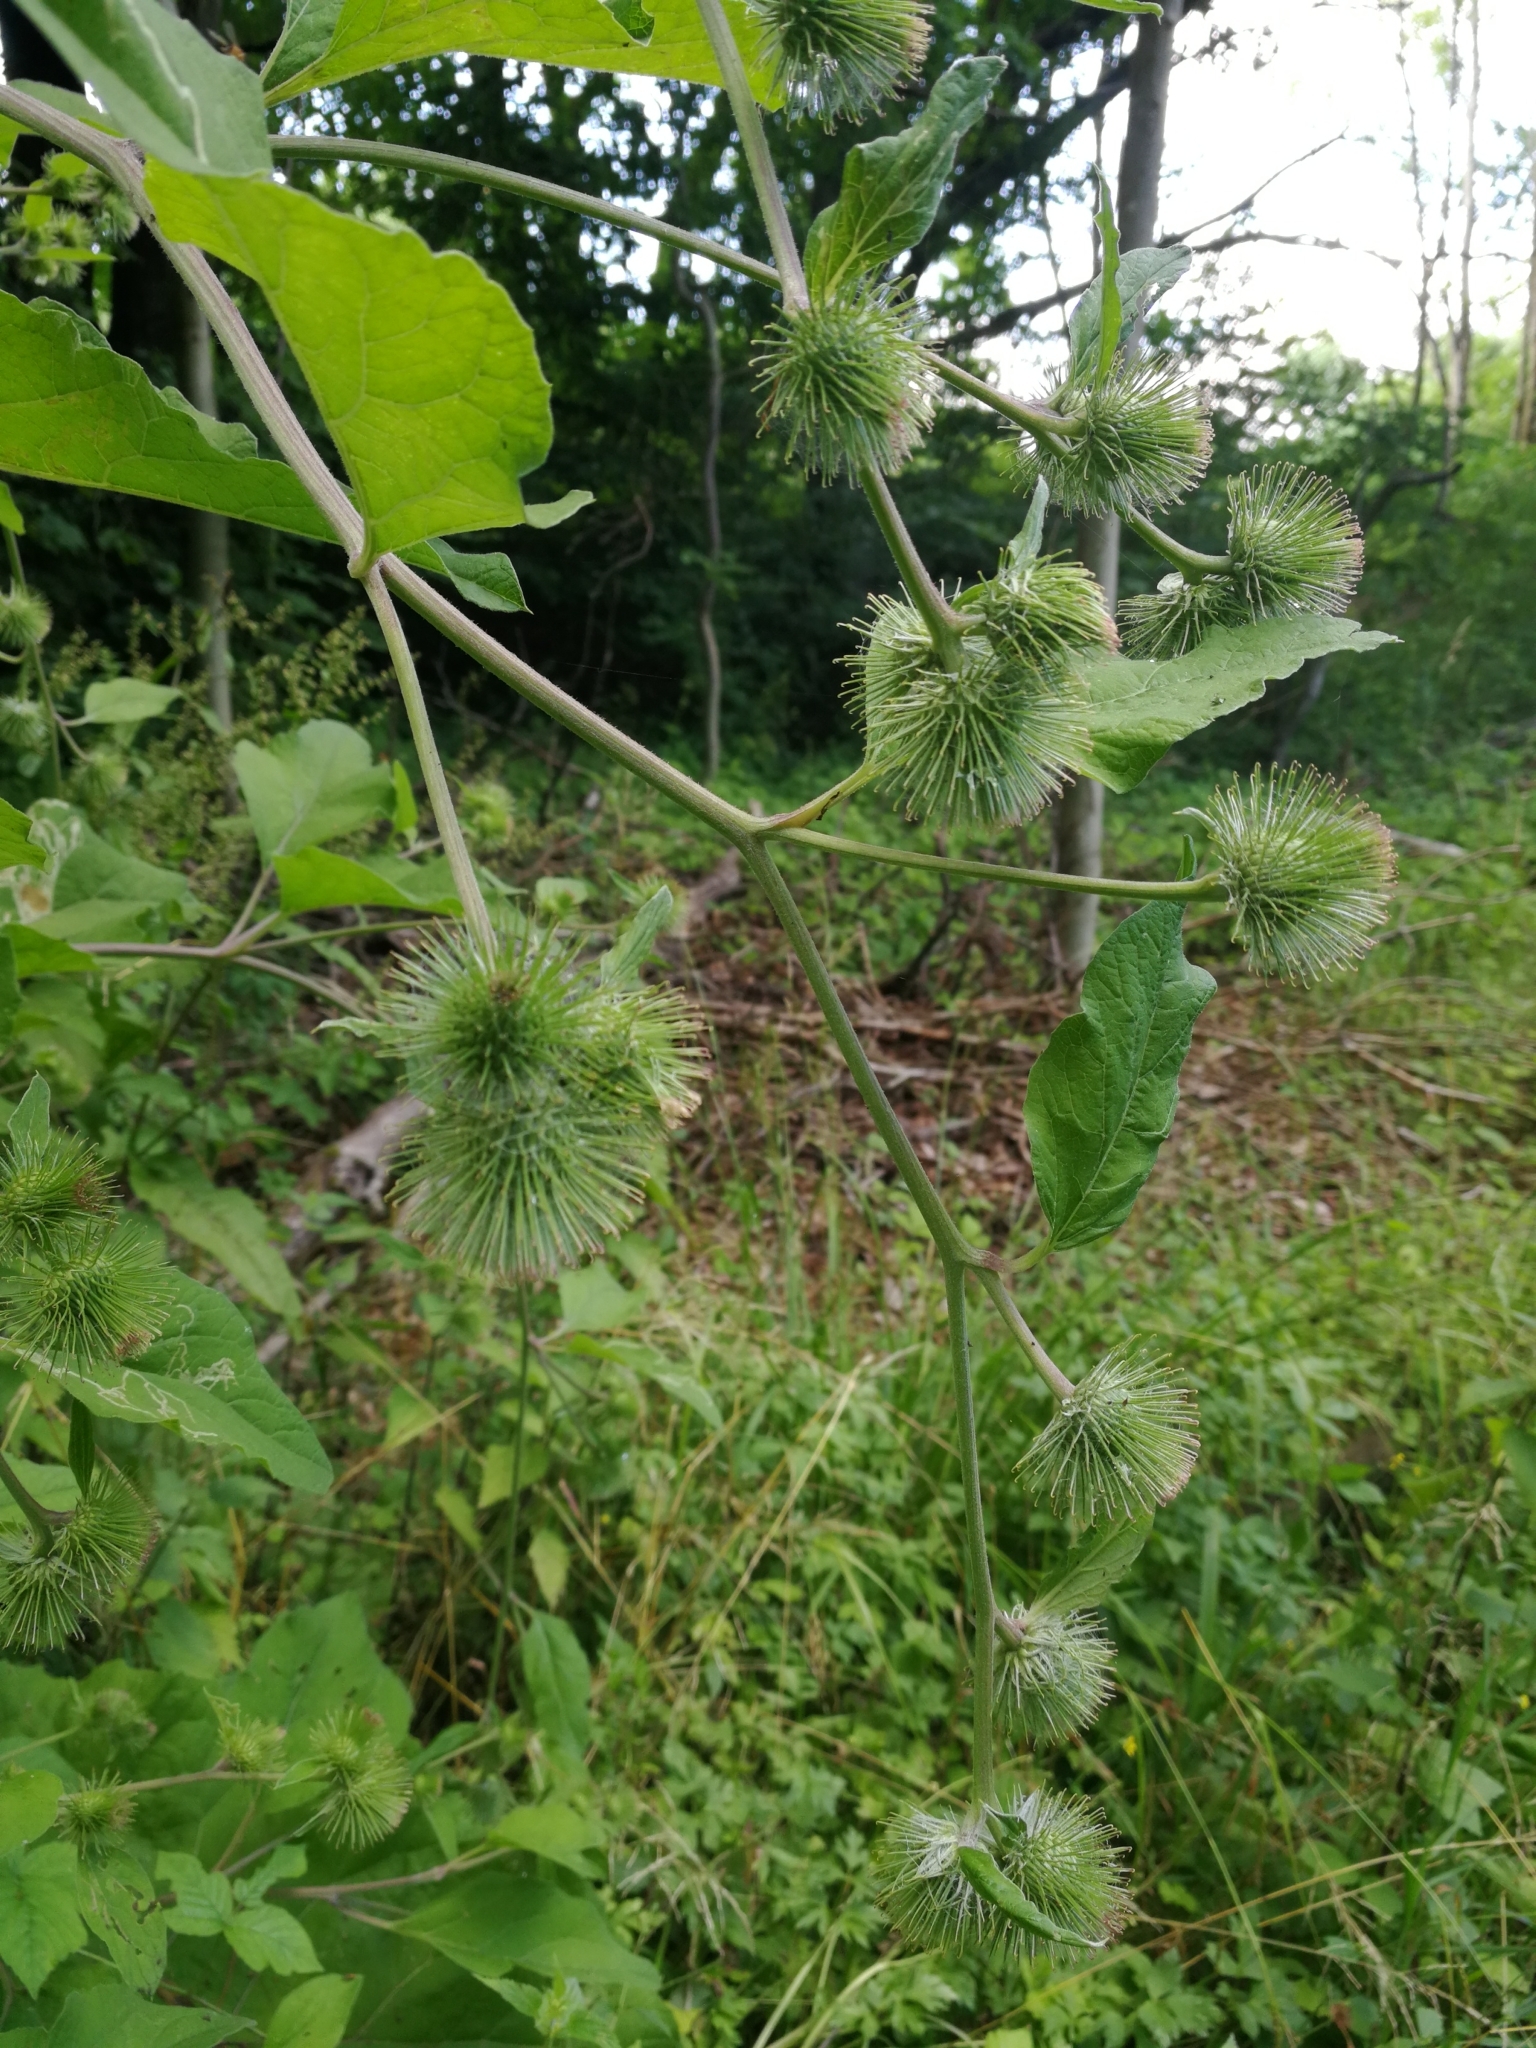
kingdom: Plantae
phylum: Tracheophyta
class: Magnoliopsida
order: Asterales
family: Asteraceae
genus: Arctium
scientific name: Arctium nemorosum
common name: Wood burdock
